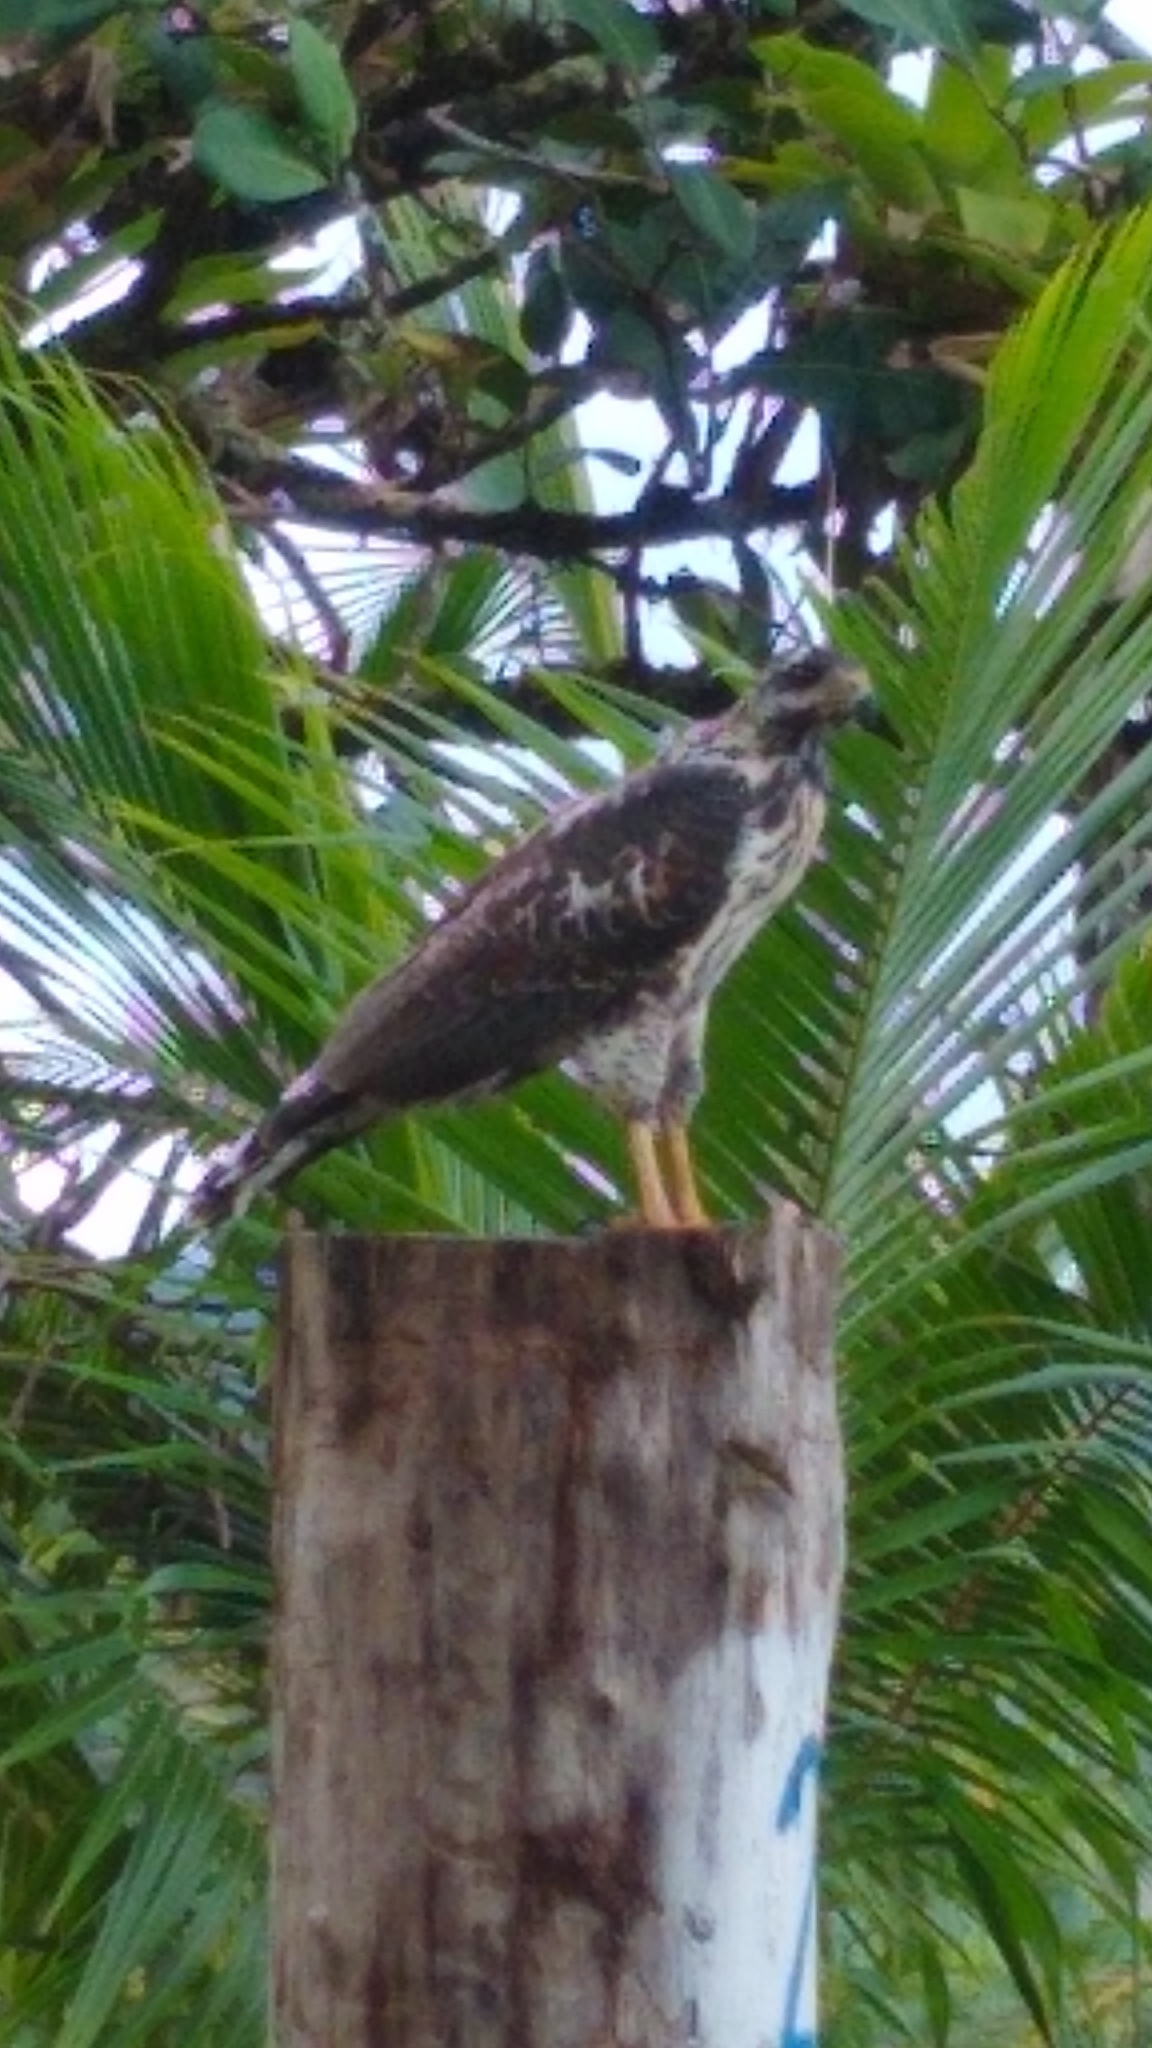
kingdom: Animalia
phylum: Chordata
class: Aves
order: Accipitriformes
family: Accipitridae
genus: Buteogallus
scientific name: Buteogallus anthracinus
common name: Common black hawk
